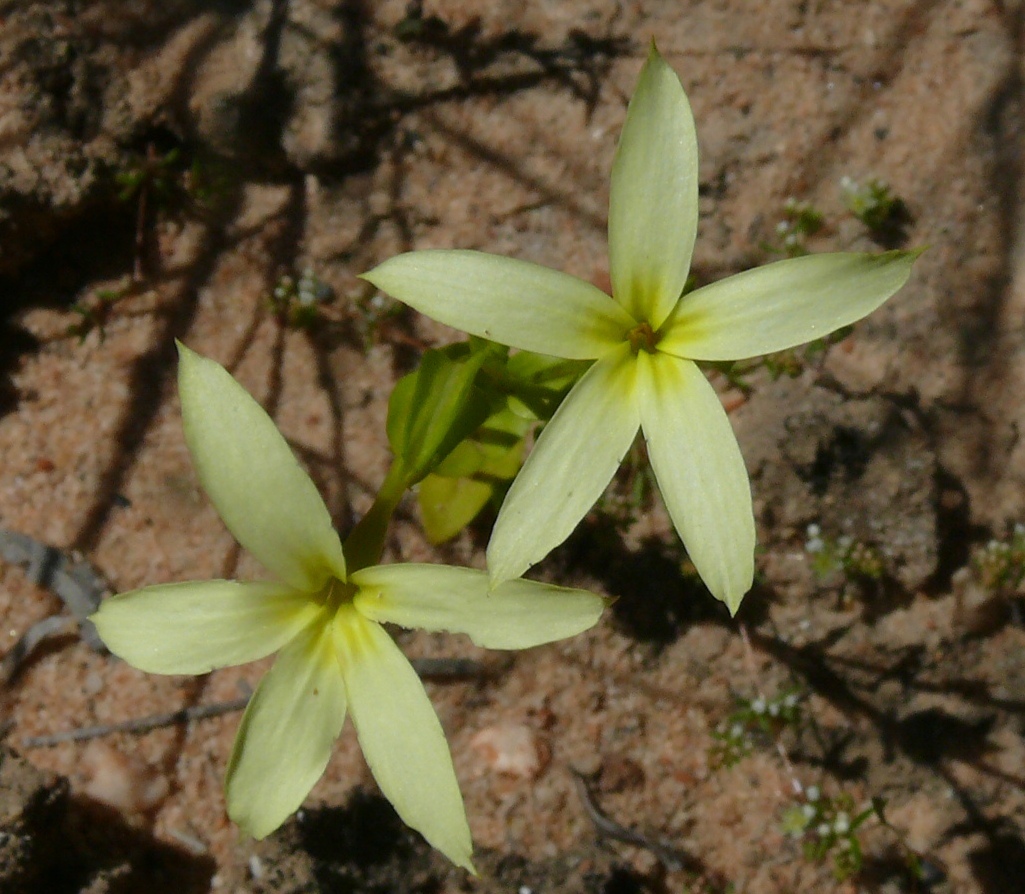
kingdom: Plantae
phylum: Tracheophyta
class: Magnoliopsida
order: Gentianales
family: Gentianaceae
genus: Sebaea
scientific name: Sebaea exacoides
